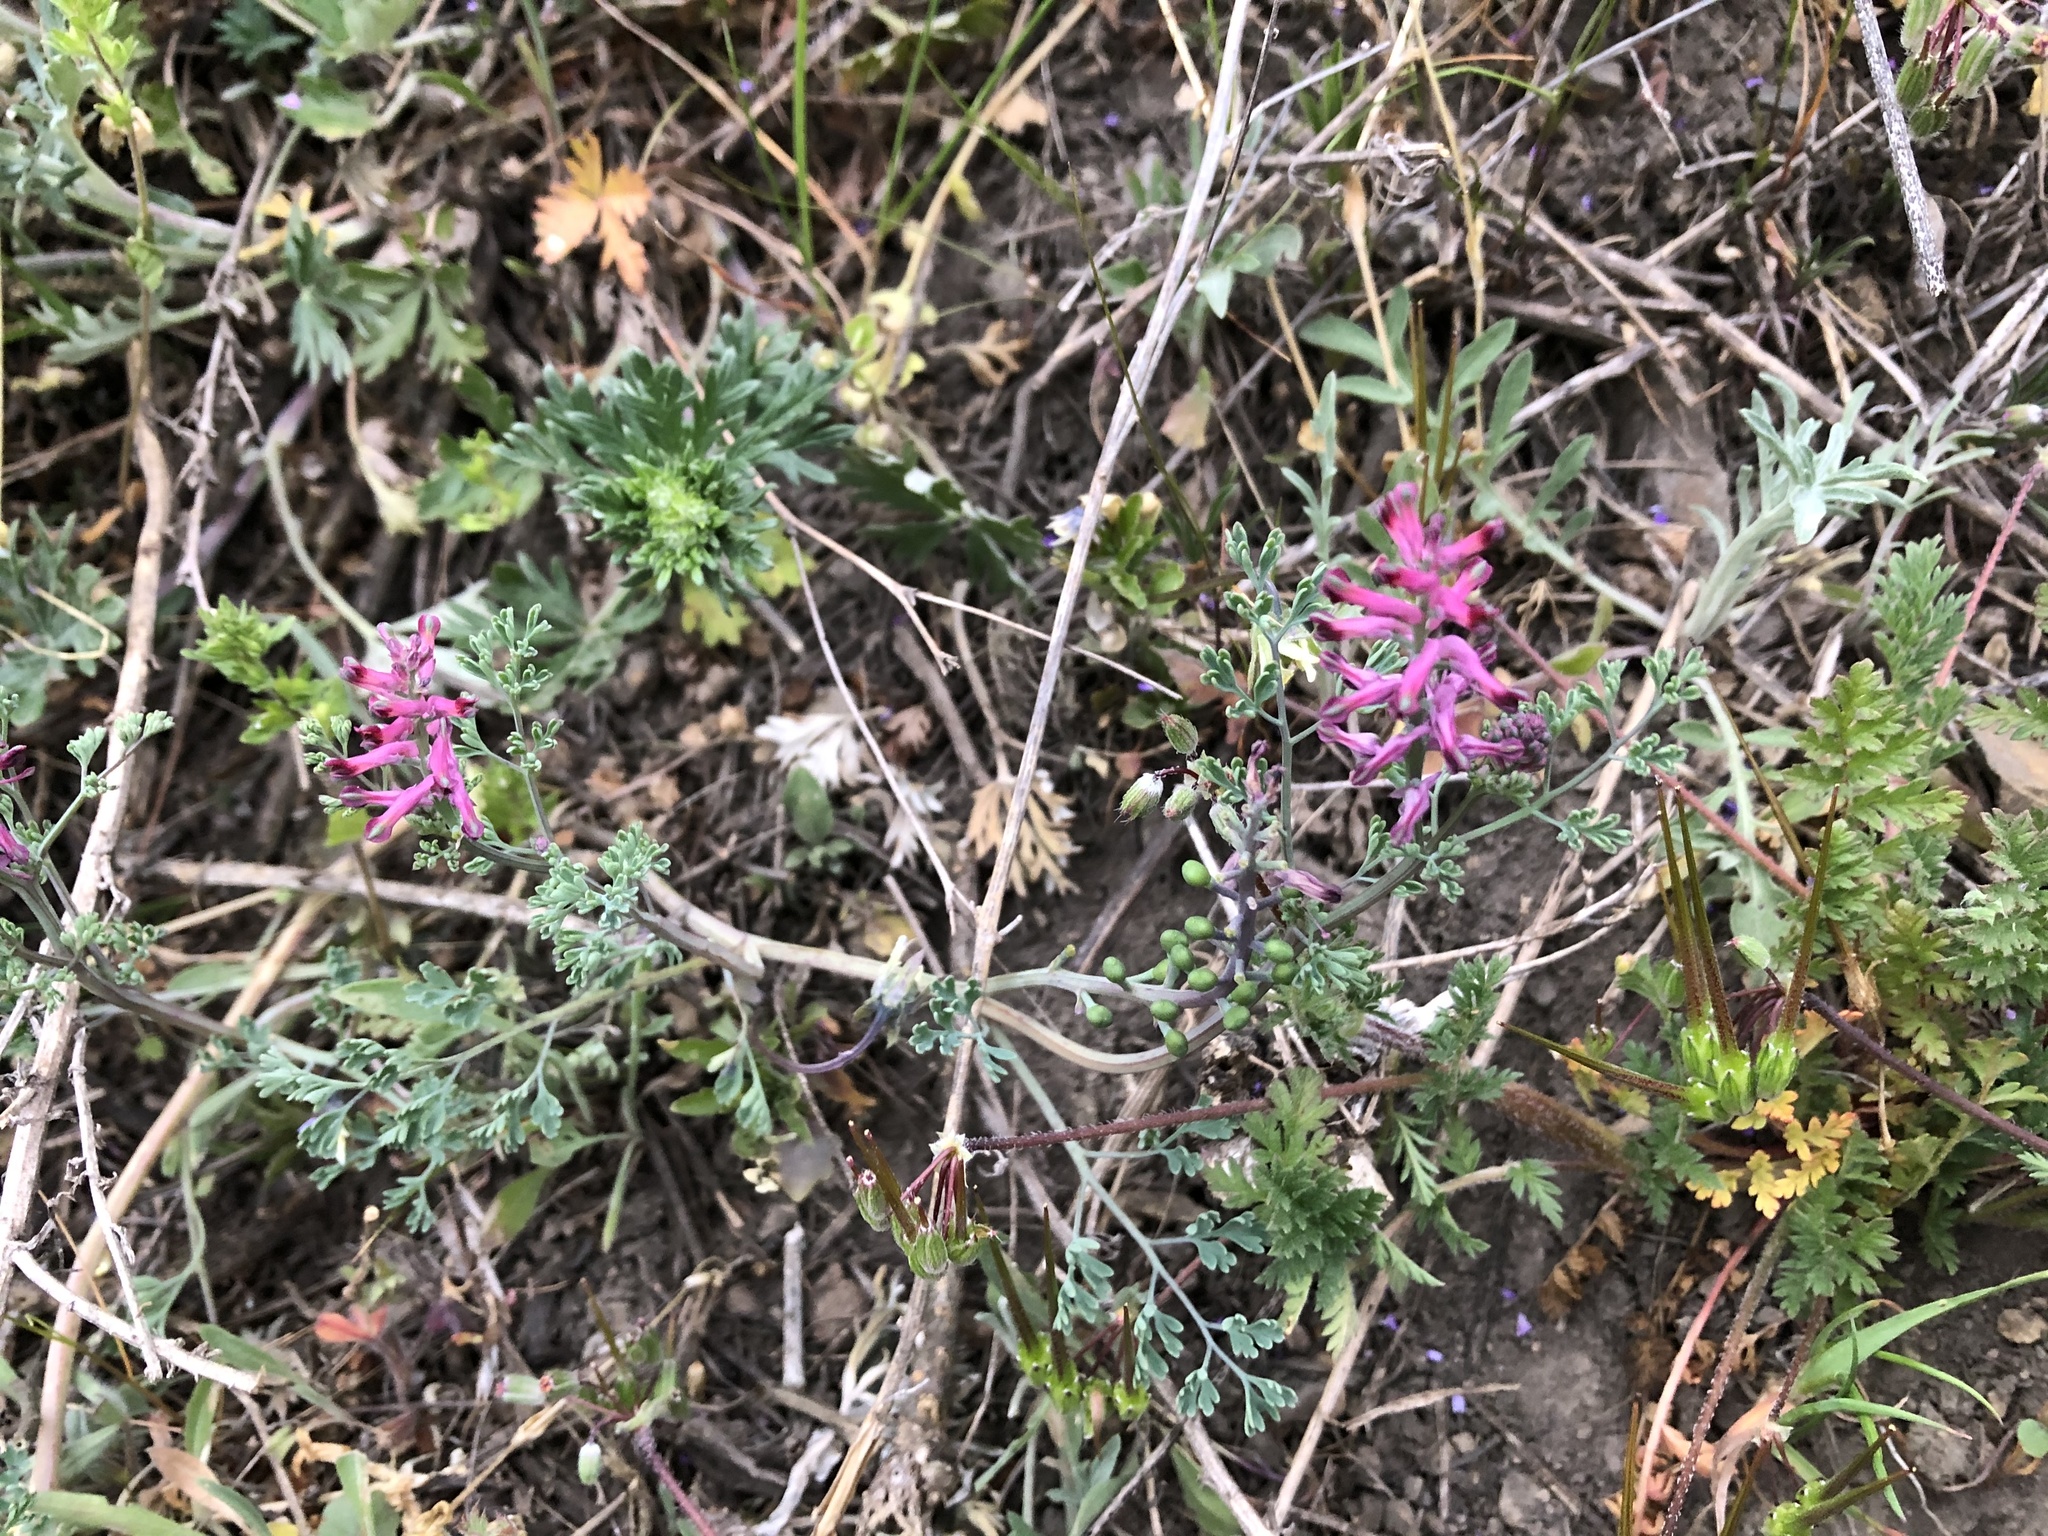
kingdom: Plantae
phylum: Tracheophyta
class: Magnoliopsida
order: Ranunculales
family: Papaveraceae
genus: Fumaria
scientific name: Fumaria officinalis
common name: Common fumitory
